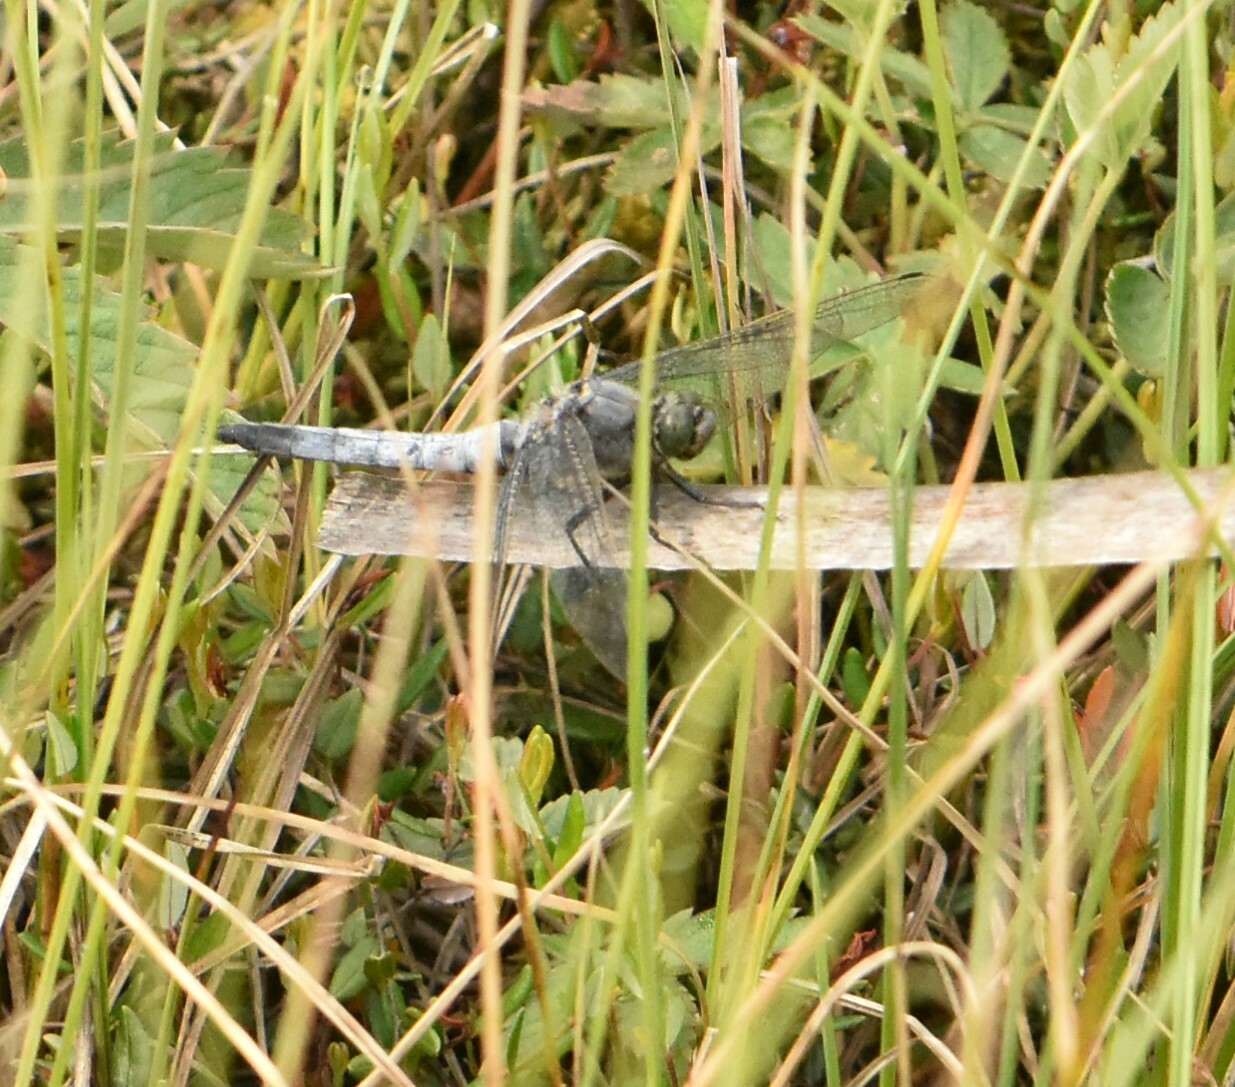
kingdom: Animalia
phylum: Arthropoda
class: Insecta
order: Odonata
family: Libellulidae
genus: Orthetrum
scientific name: Orthetrum cancellatum
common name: Black-tailed skimmer
